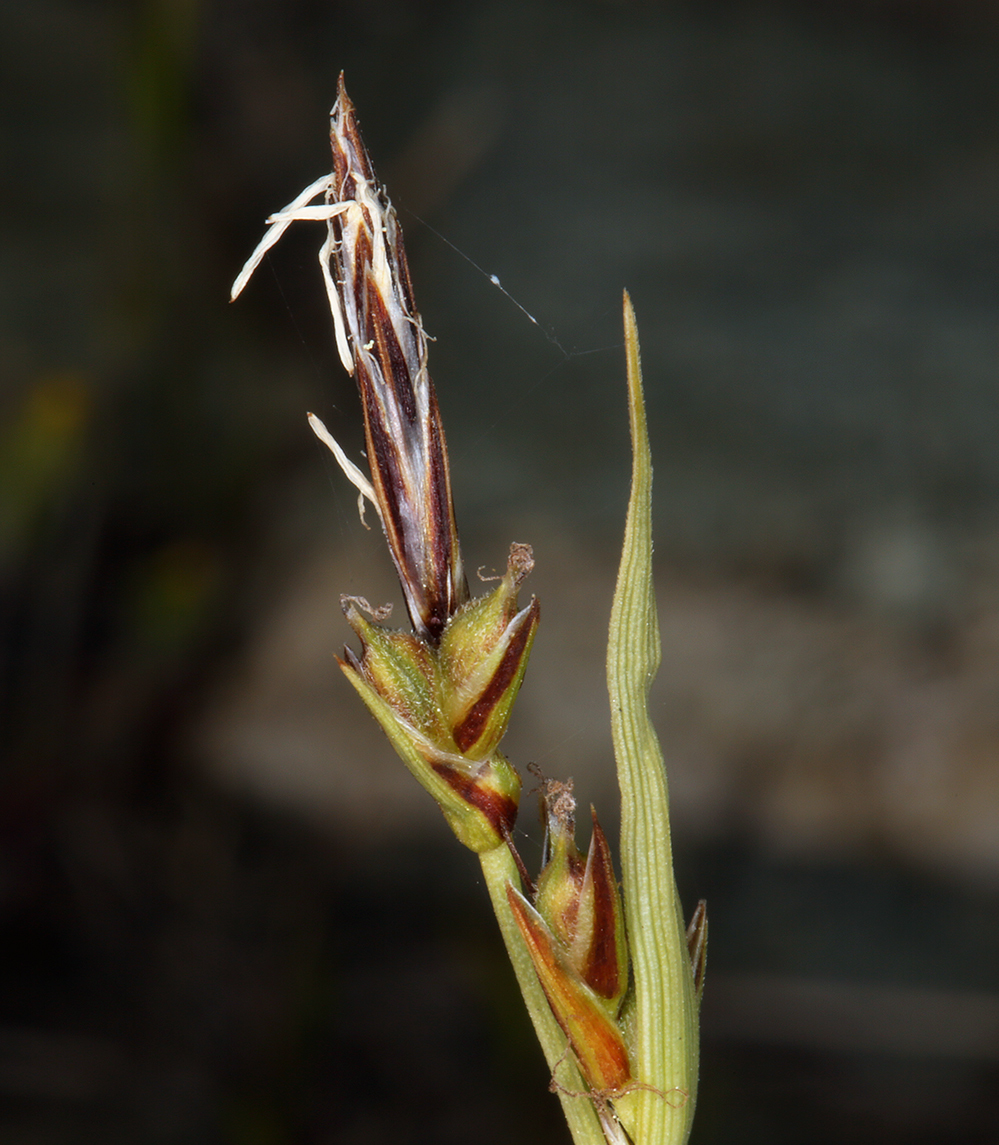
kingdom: Plantae
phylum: Tracheophyta
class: Liliopsida
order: Poales
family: Cyperaceae
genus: Carex
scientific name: Carex deflexa
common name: Bent northern sedge
